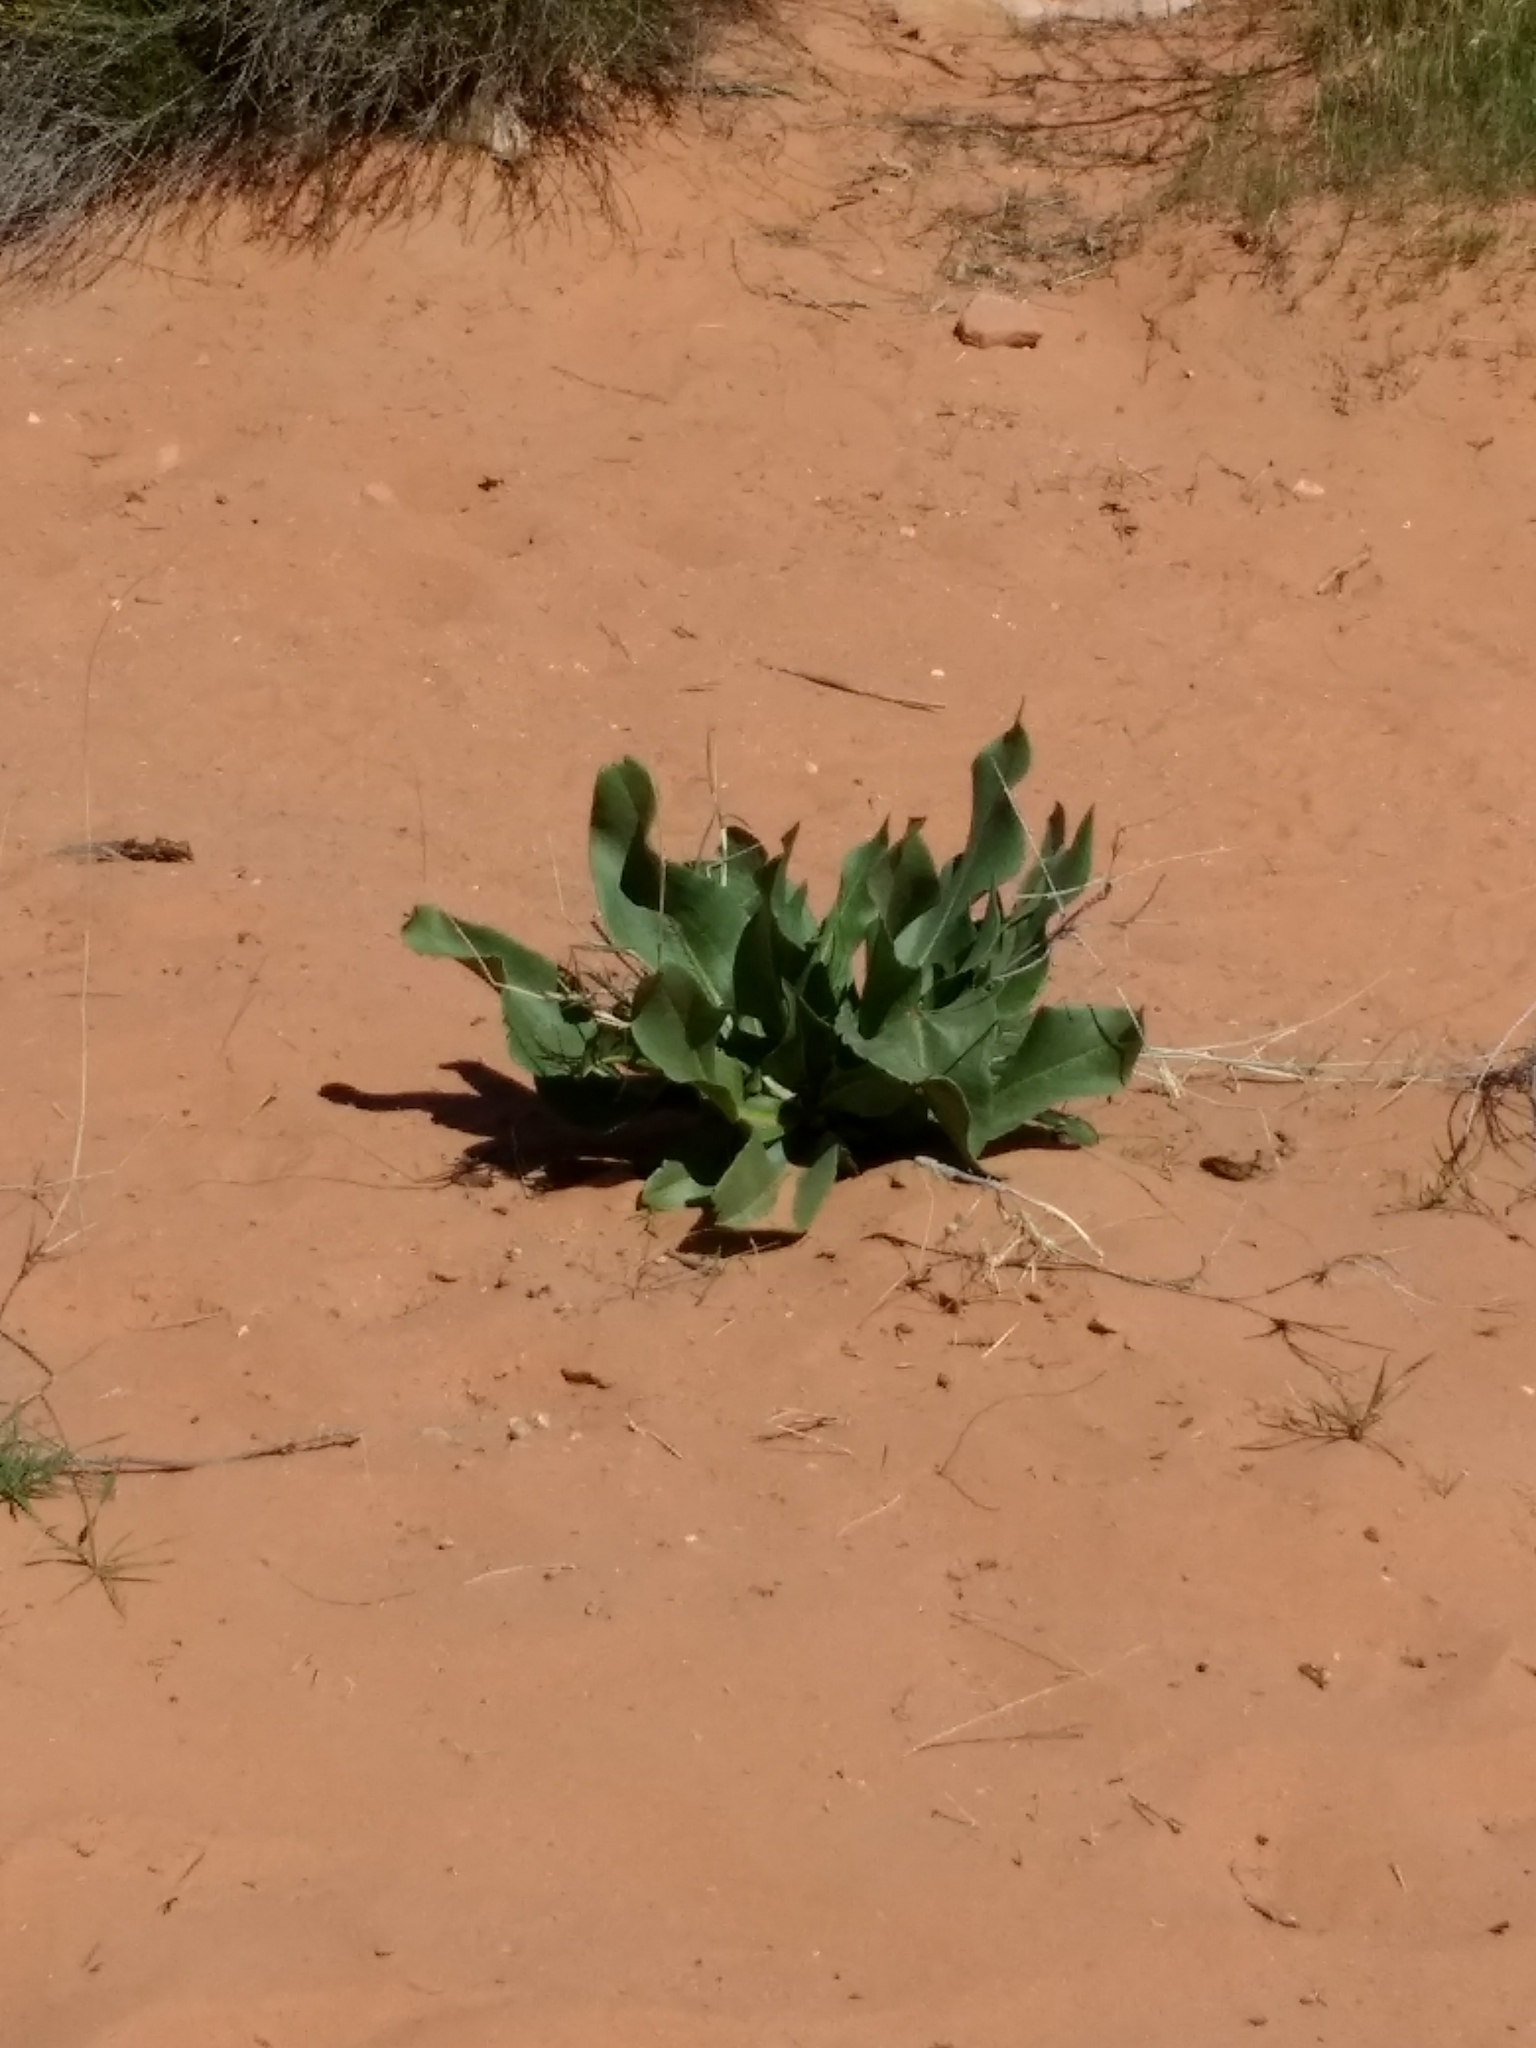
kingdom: Plantae
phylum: Tracheophyta
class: Magnoliopsida
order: Caryophyllales
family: Polygonaceae
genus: Rumex
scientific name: Rumex hymenosepalus
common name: Ganagra
